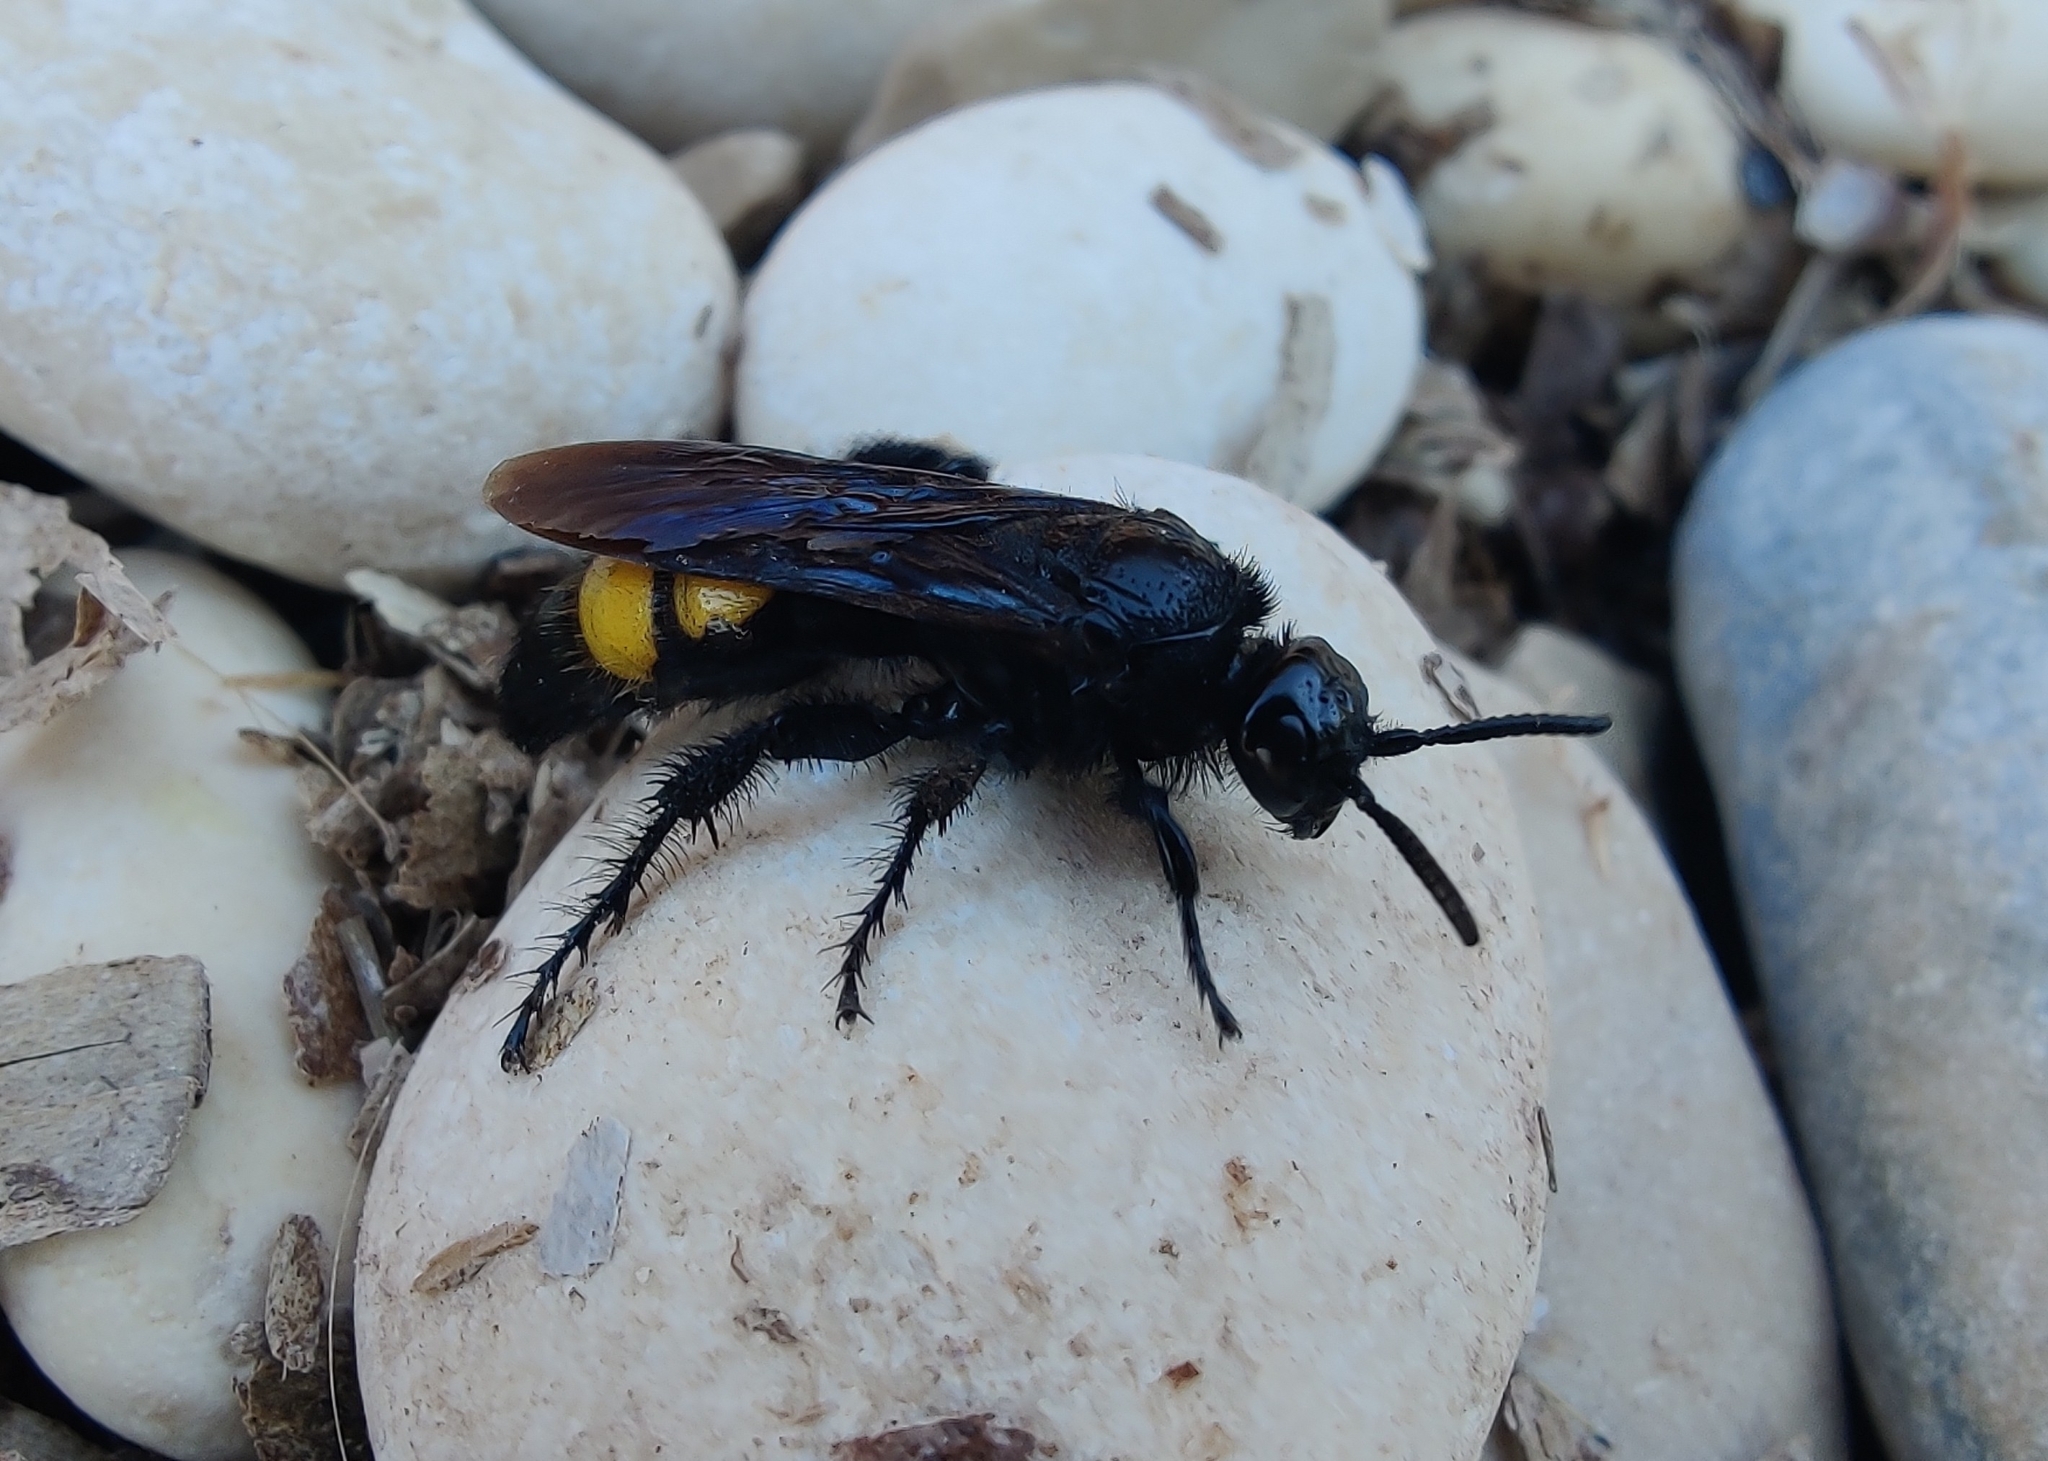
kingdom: Animalia
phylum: Arthropoda
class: Insecta
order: Hymenoptera
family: Scoliidae
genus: Scolia
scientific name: Scolia hirta
